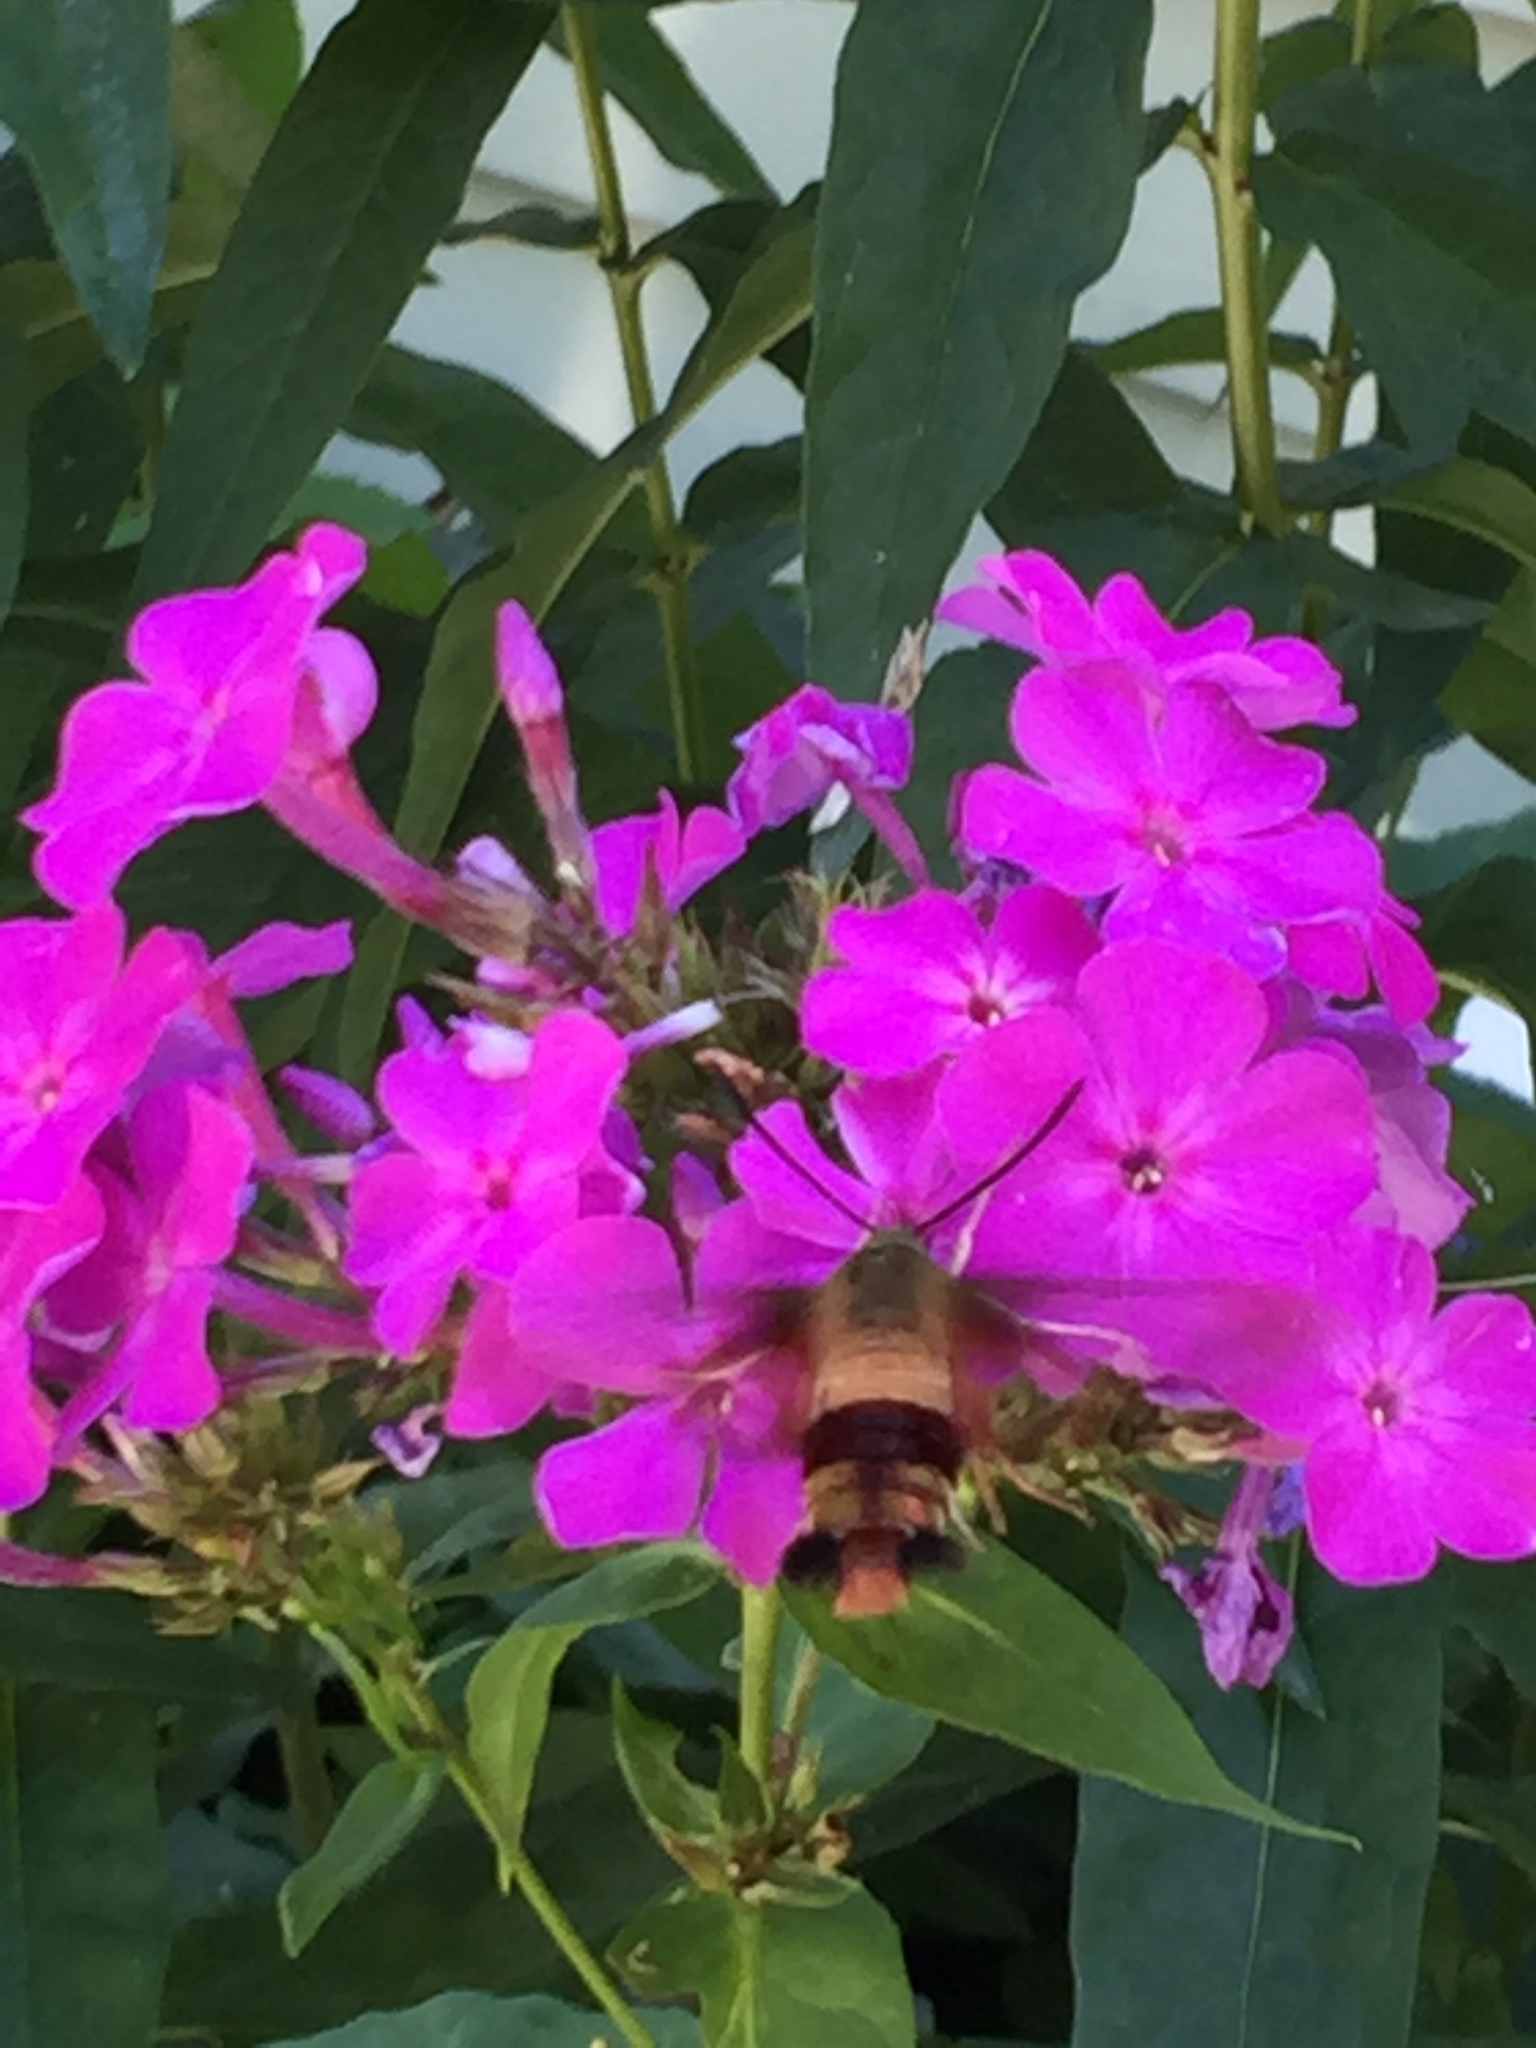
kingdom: Animalia
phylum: Arthropoda
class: Insecta
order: Lepidoptera
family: Sphingidae
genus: Hemaris
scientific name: Hemaris thysbe
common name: Common clear-wing
